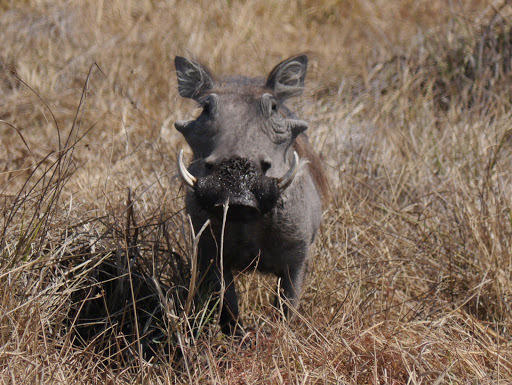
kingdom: Animalia
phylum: Chordata
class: Mammalia
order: Artiodactyla
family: Suidae
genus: Phacochoerus
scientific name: Phacochoerus africanus
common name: Common warthog
